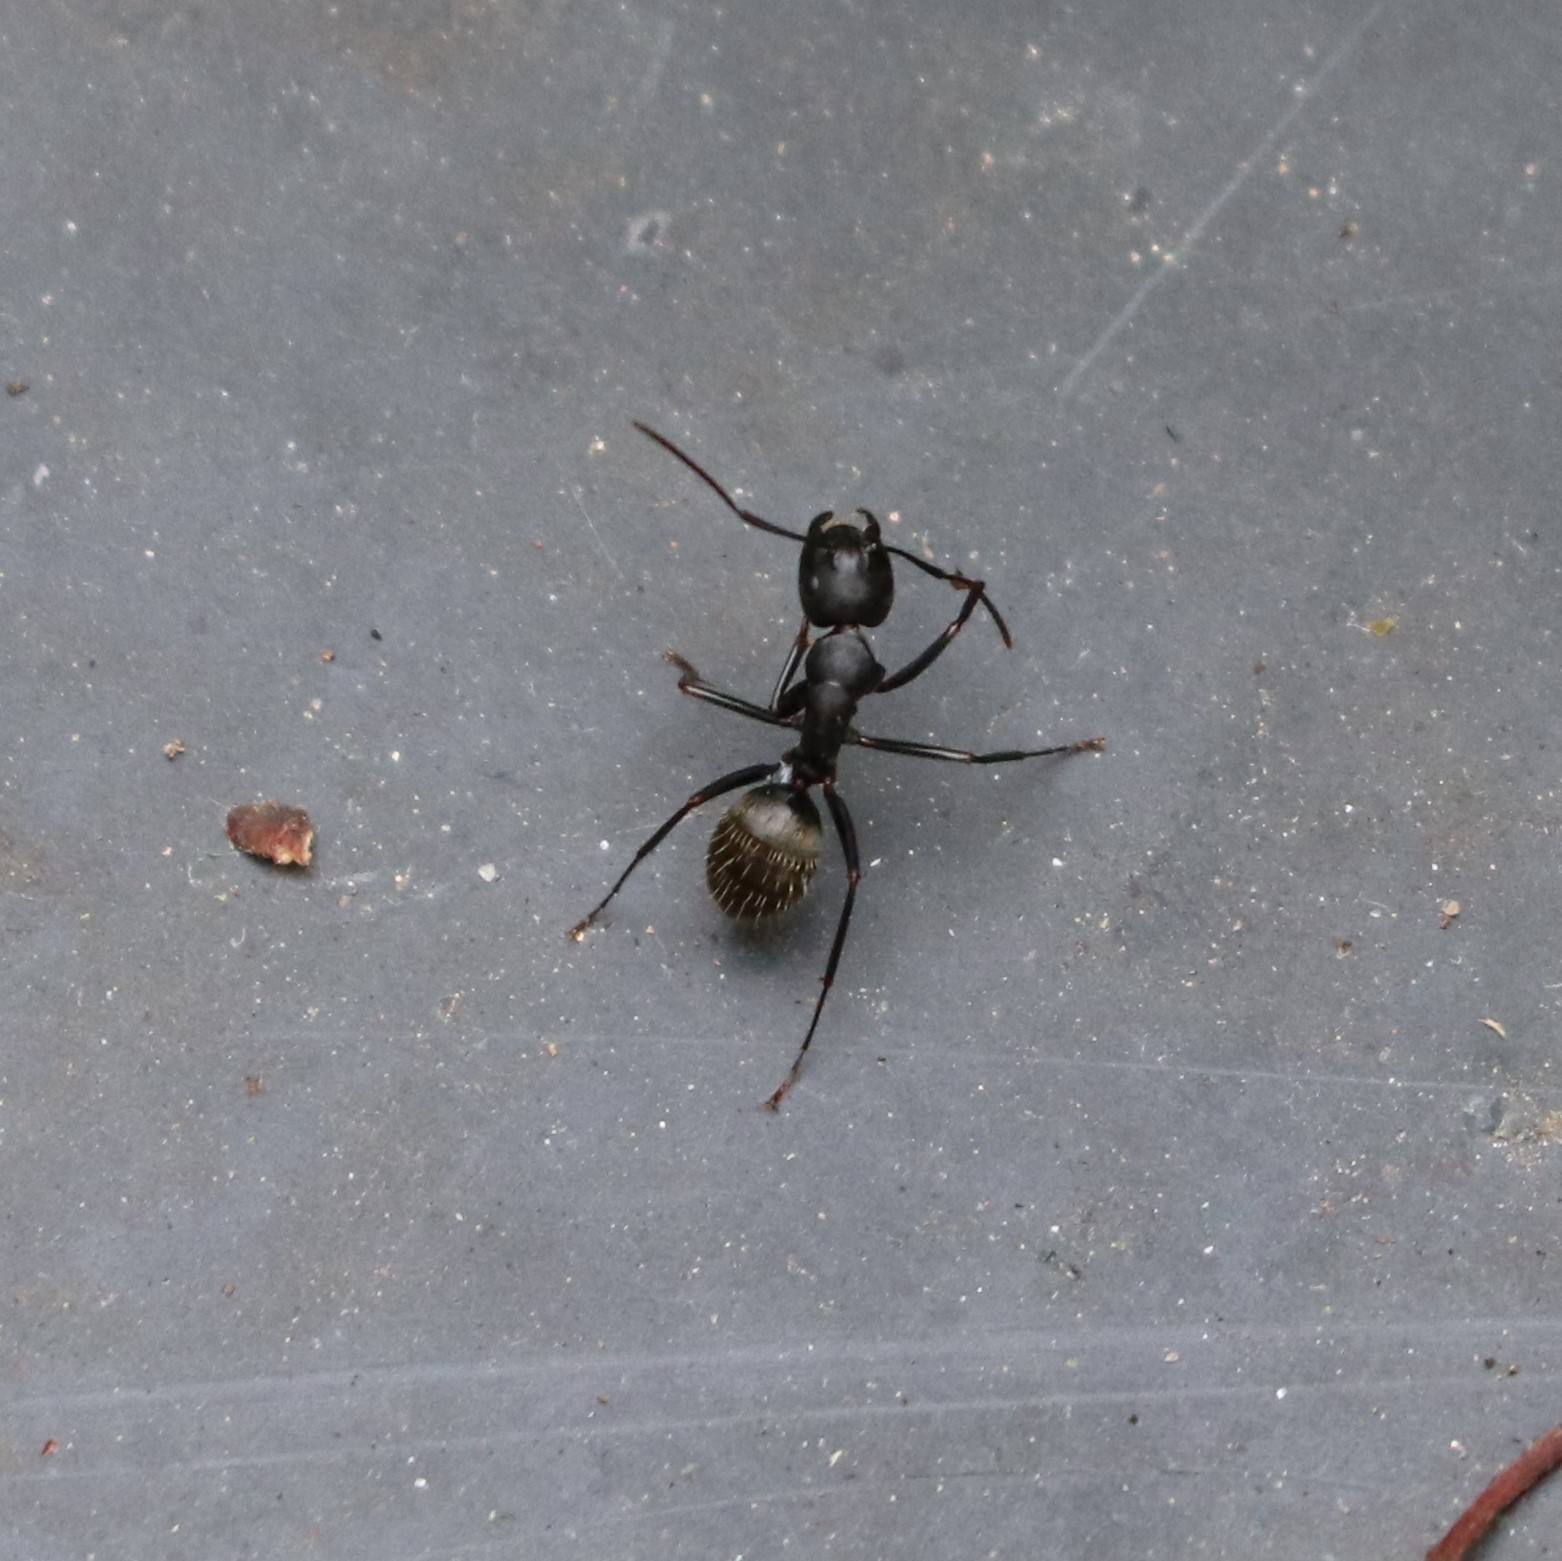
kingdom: Animalia
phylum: Arthropoda
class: Insecta
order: Hymenoptera
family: Formicidae
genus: Camponotus
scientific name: Camponotus pennsylvanicus
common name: Black carpenter ant
